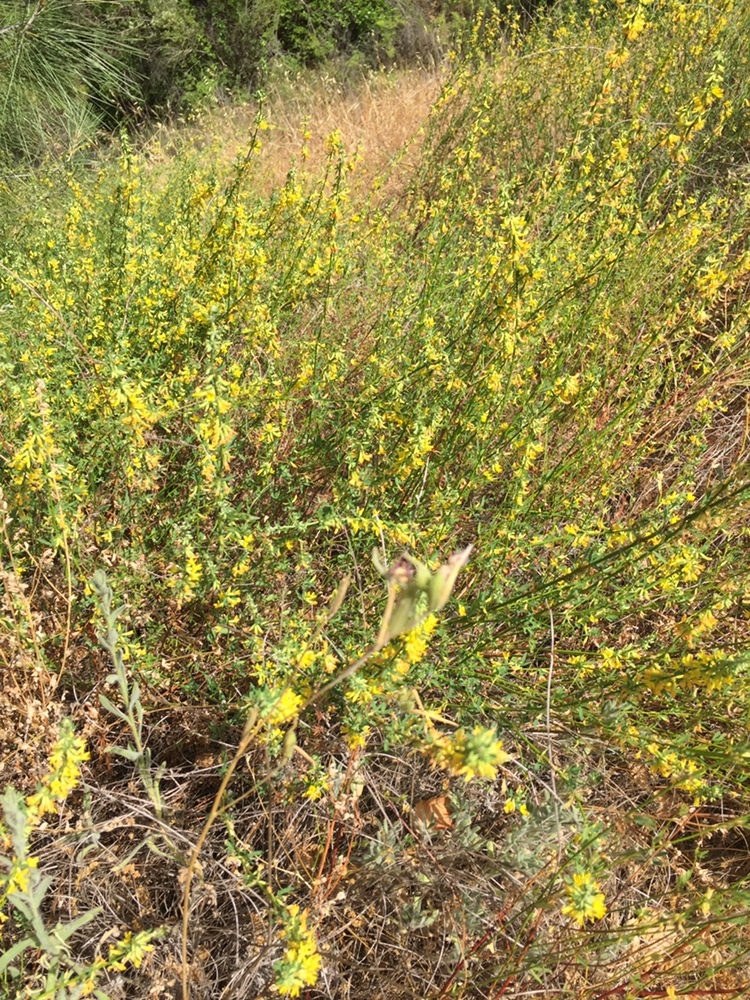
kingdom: Plantae
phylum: Tracheophyta
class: Magnoliopsida
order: Fabales
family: Fabaceae
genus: Acmispon
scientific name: Acmispon glaber
